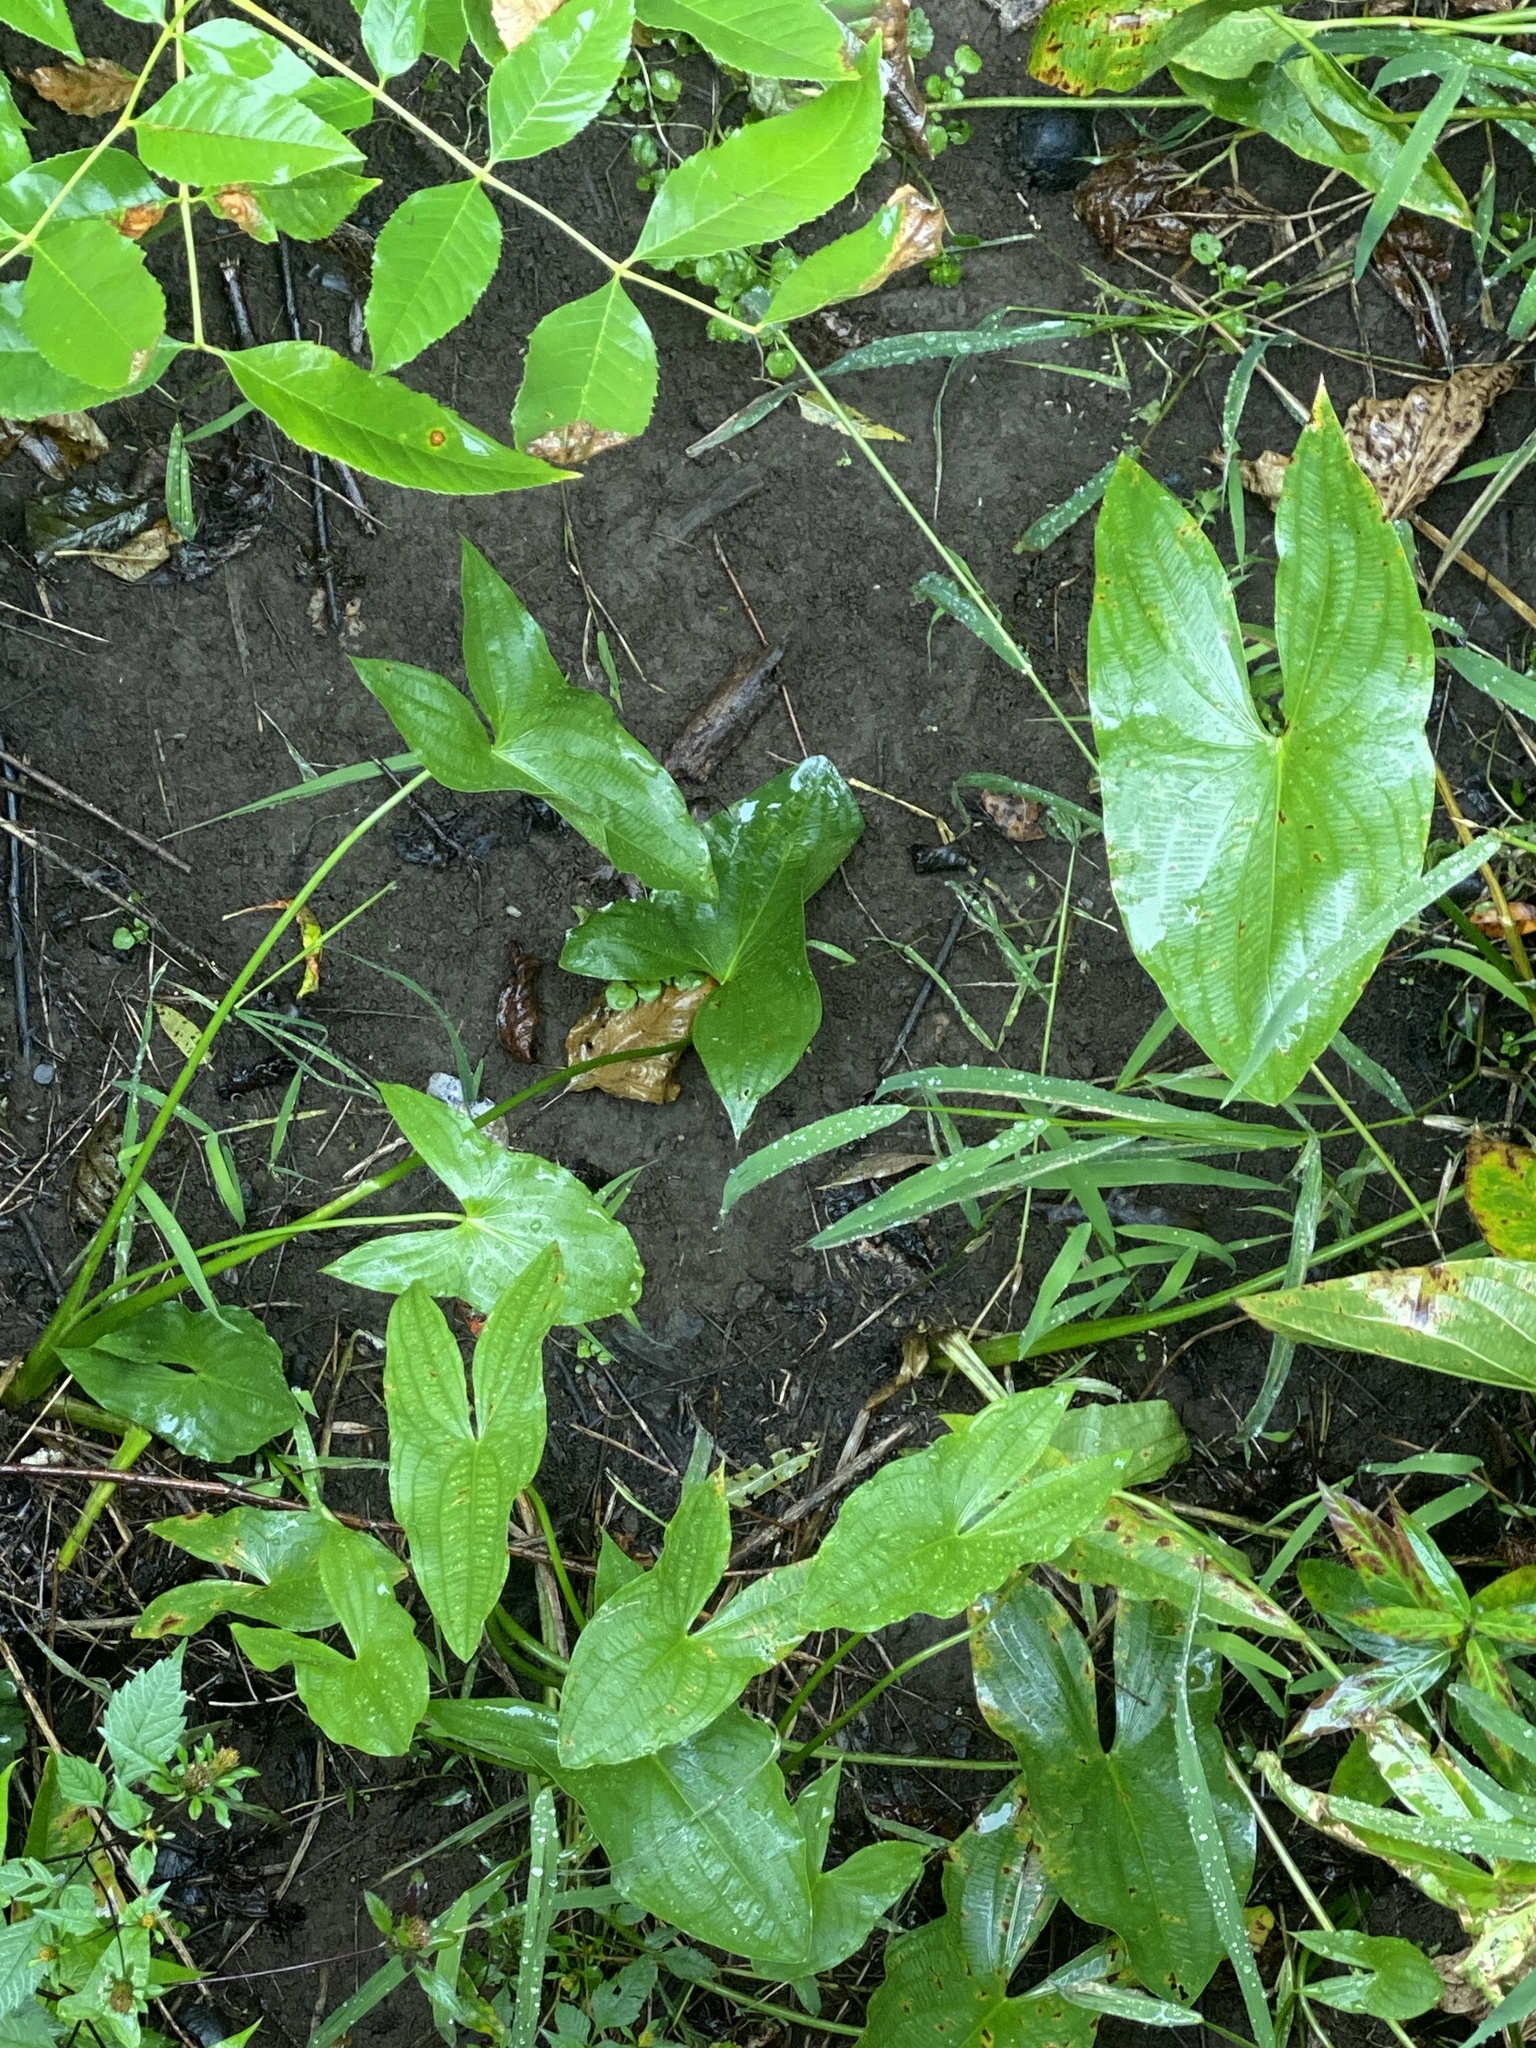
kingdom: Plantae
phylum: Tracheophyta
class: Liliopsida
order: Alismatales
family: Alismataceae
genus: Sagittaria
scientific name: Sagittaria latifolia
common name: Duck-potato
